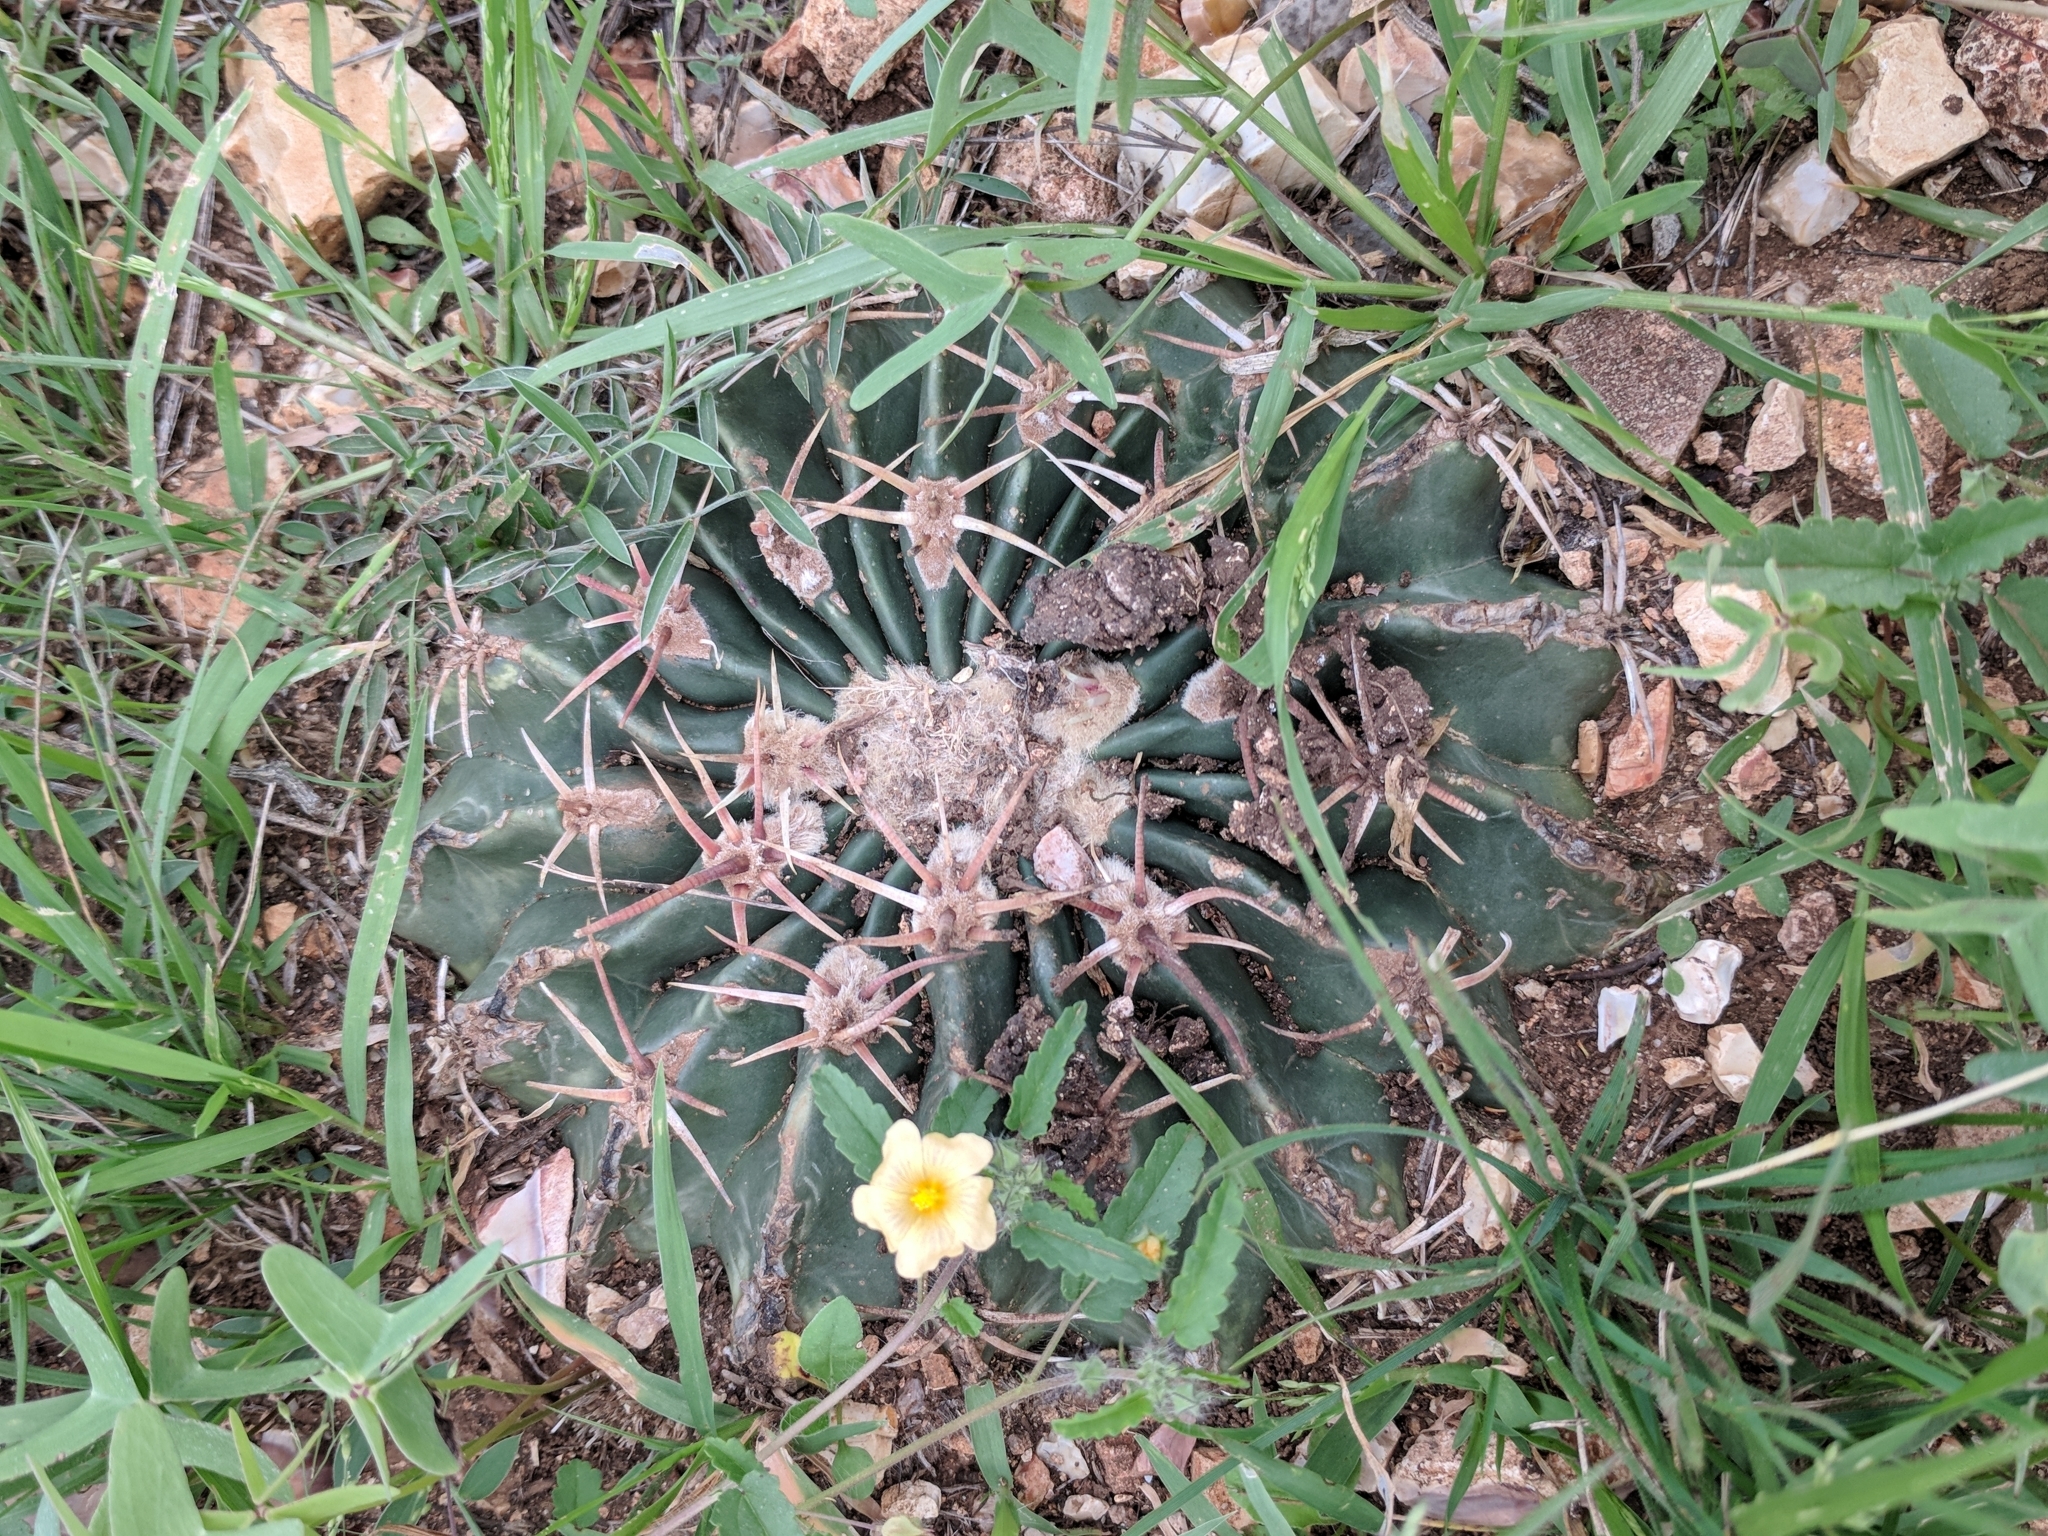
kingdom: Plantae
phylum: Tracheophyta
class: Magnoliopsida
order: Caryophyllales
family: Cactaceae
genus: Echinocactus
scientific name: Echinocactus texensis
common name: Devil's pincushion
